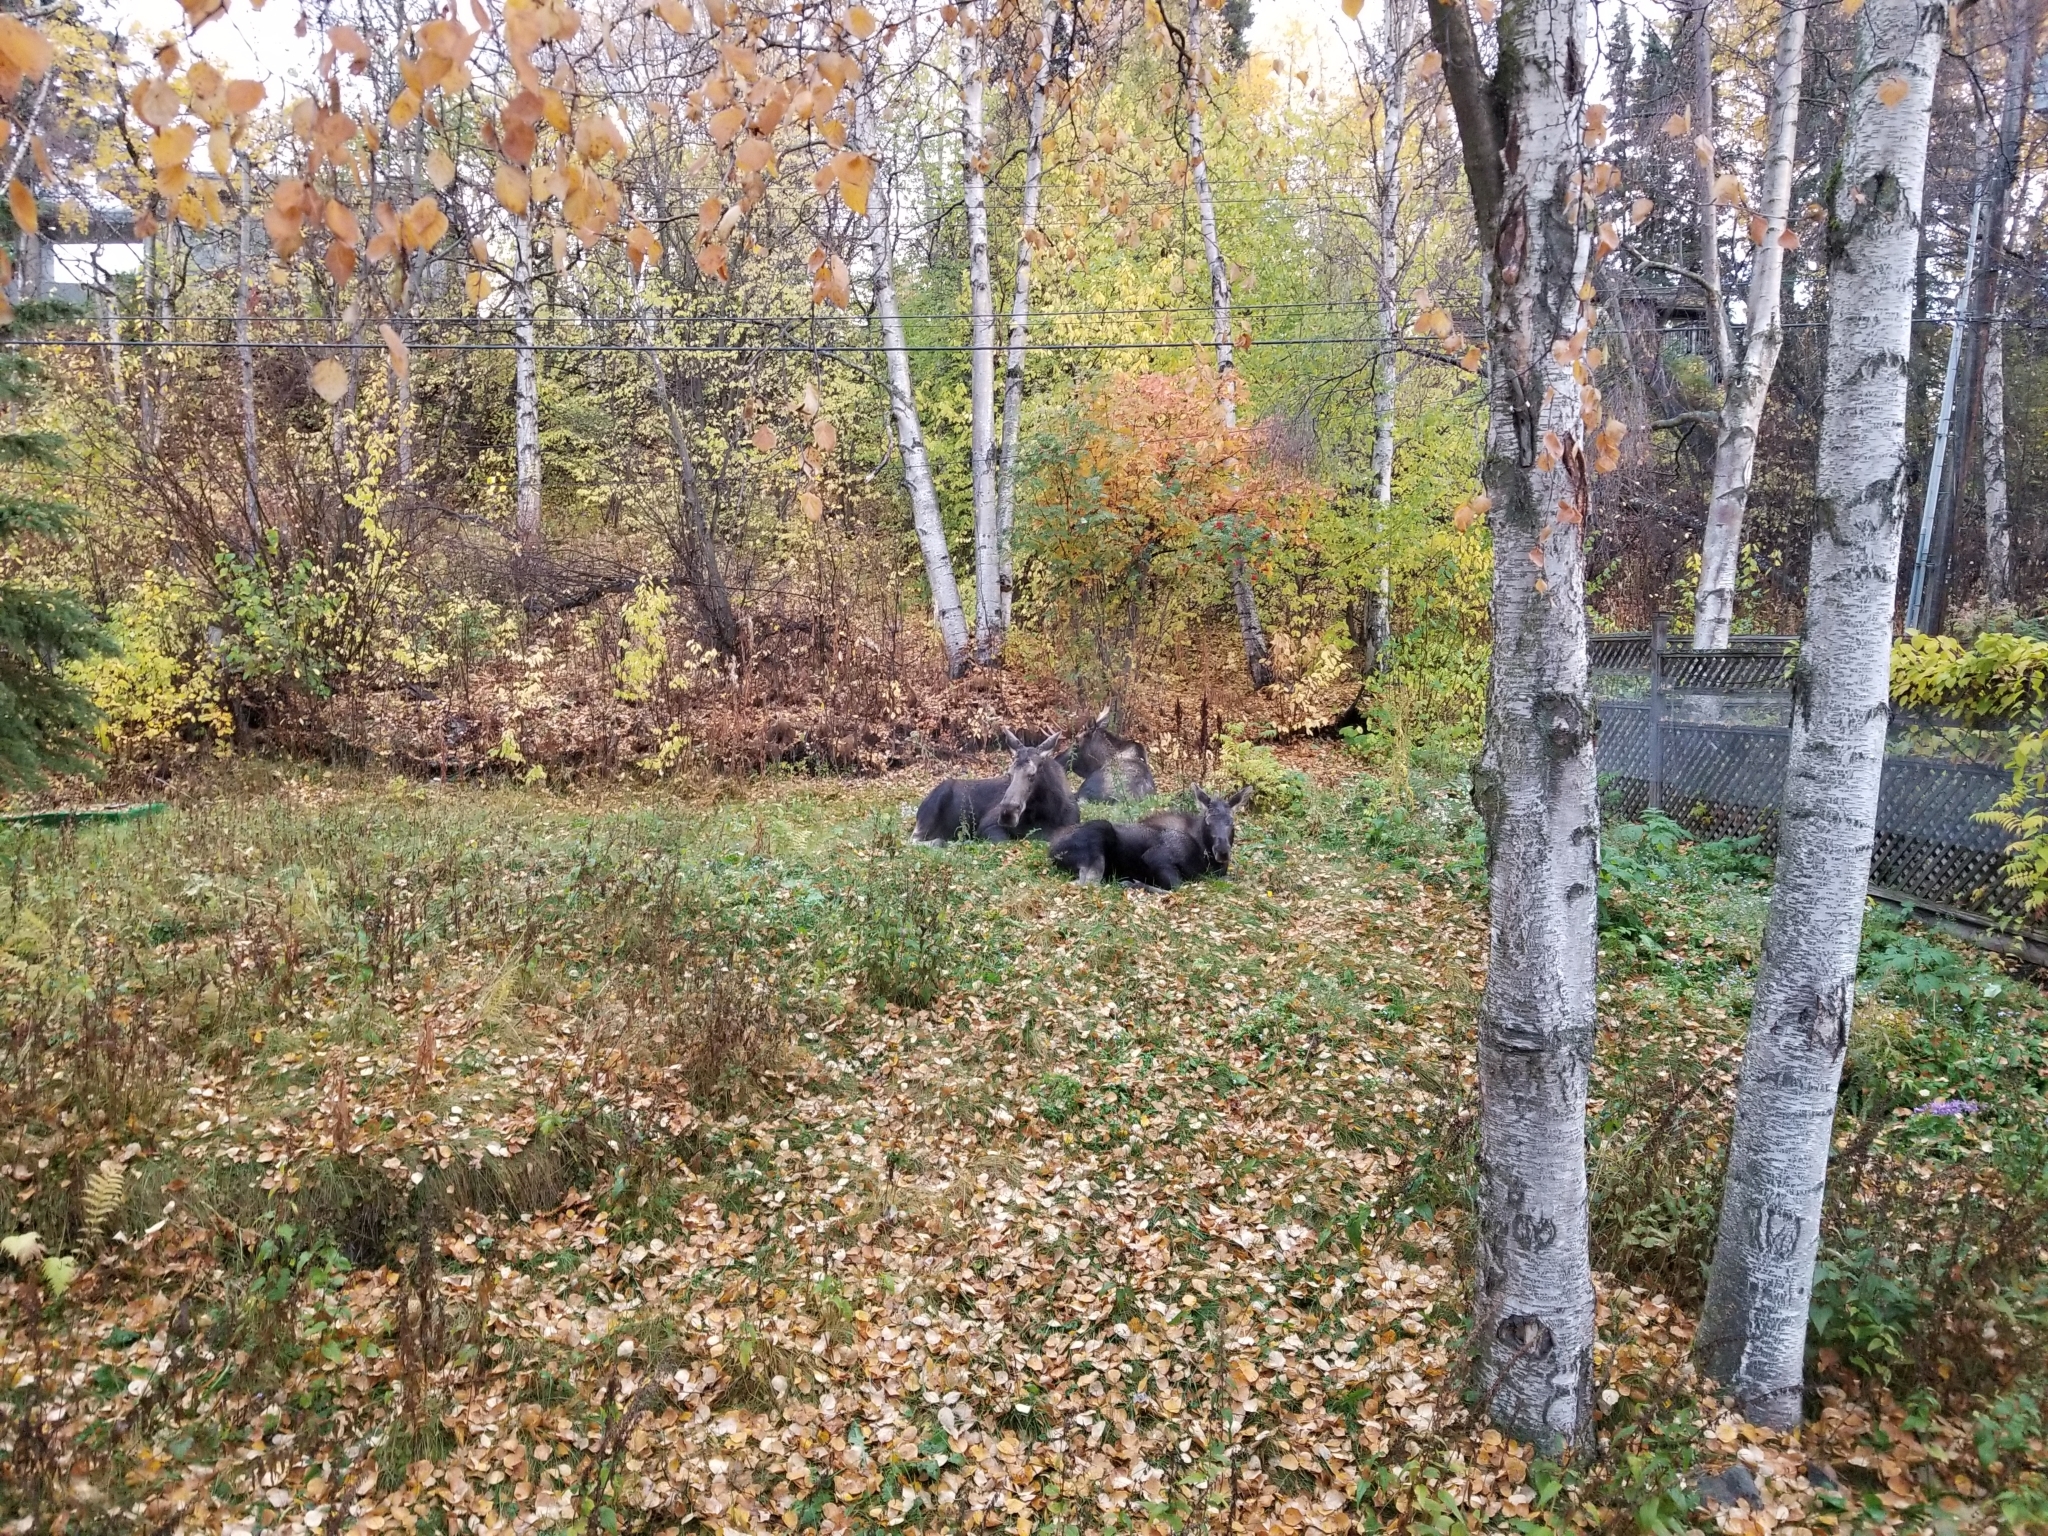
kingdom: Animalia
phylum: Chordata
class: Mammalia
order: Artiodactyla
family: Cervidae
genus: Alces
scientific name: Alces alces
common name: Moose
